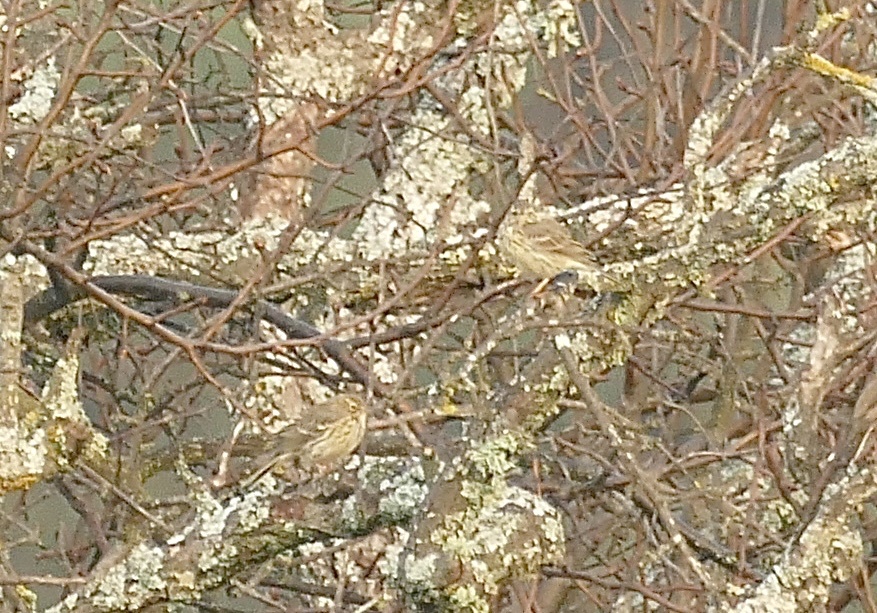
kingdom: Animalia
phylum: Chordata
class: Aves
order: Passeriformes
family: Motacillidae
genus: Anthus
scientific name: Anthus pratensis
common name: Meadow pipit
